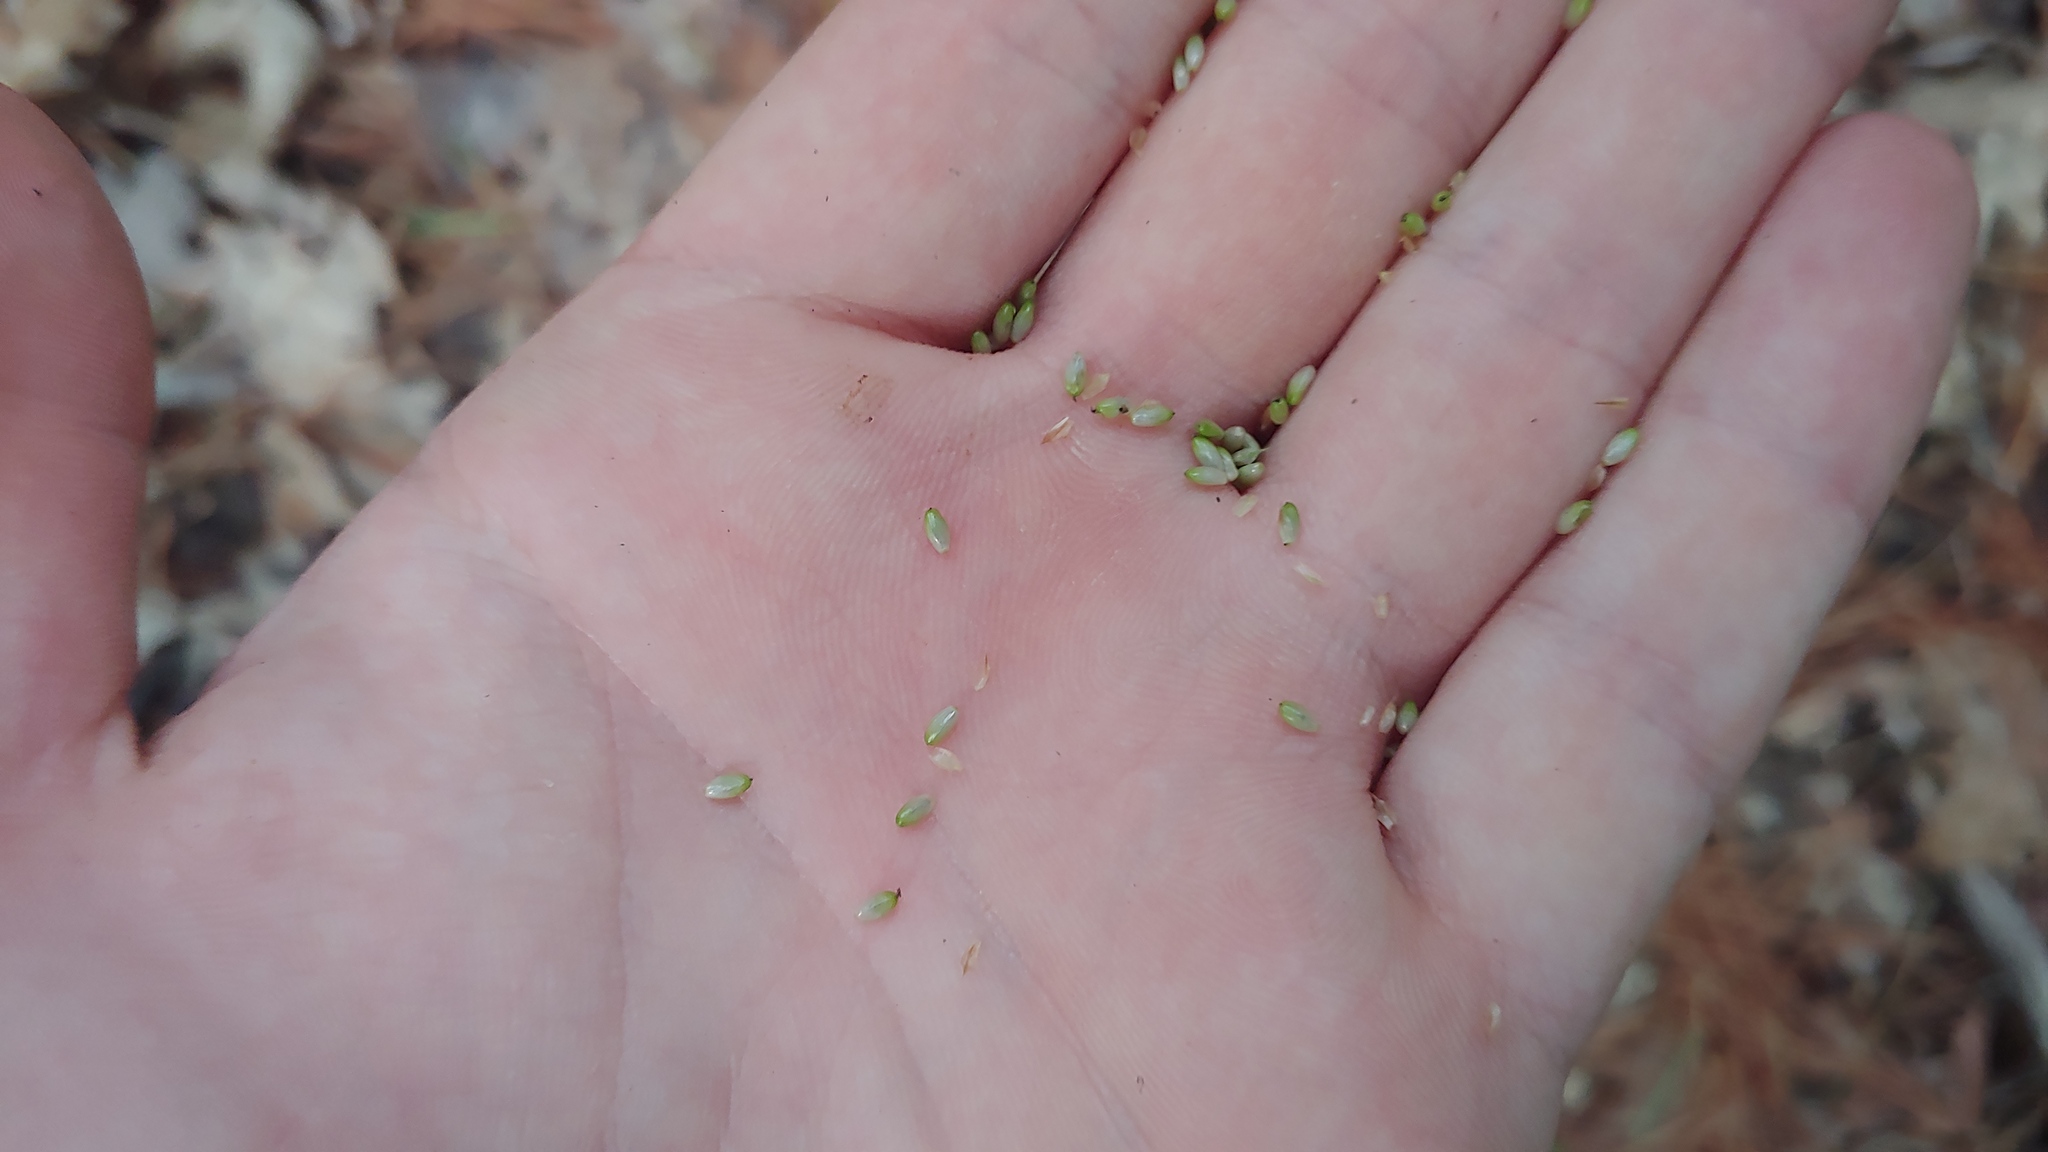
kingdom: Plantae
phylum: Tracheophyta
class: Liliopsida
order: Poales
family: Cyperaceae
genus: Carex
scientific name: Carex pallescens
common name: Pale sedge
